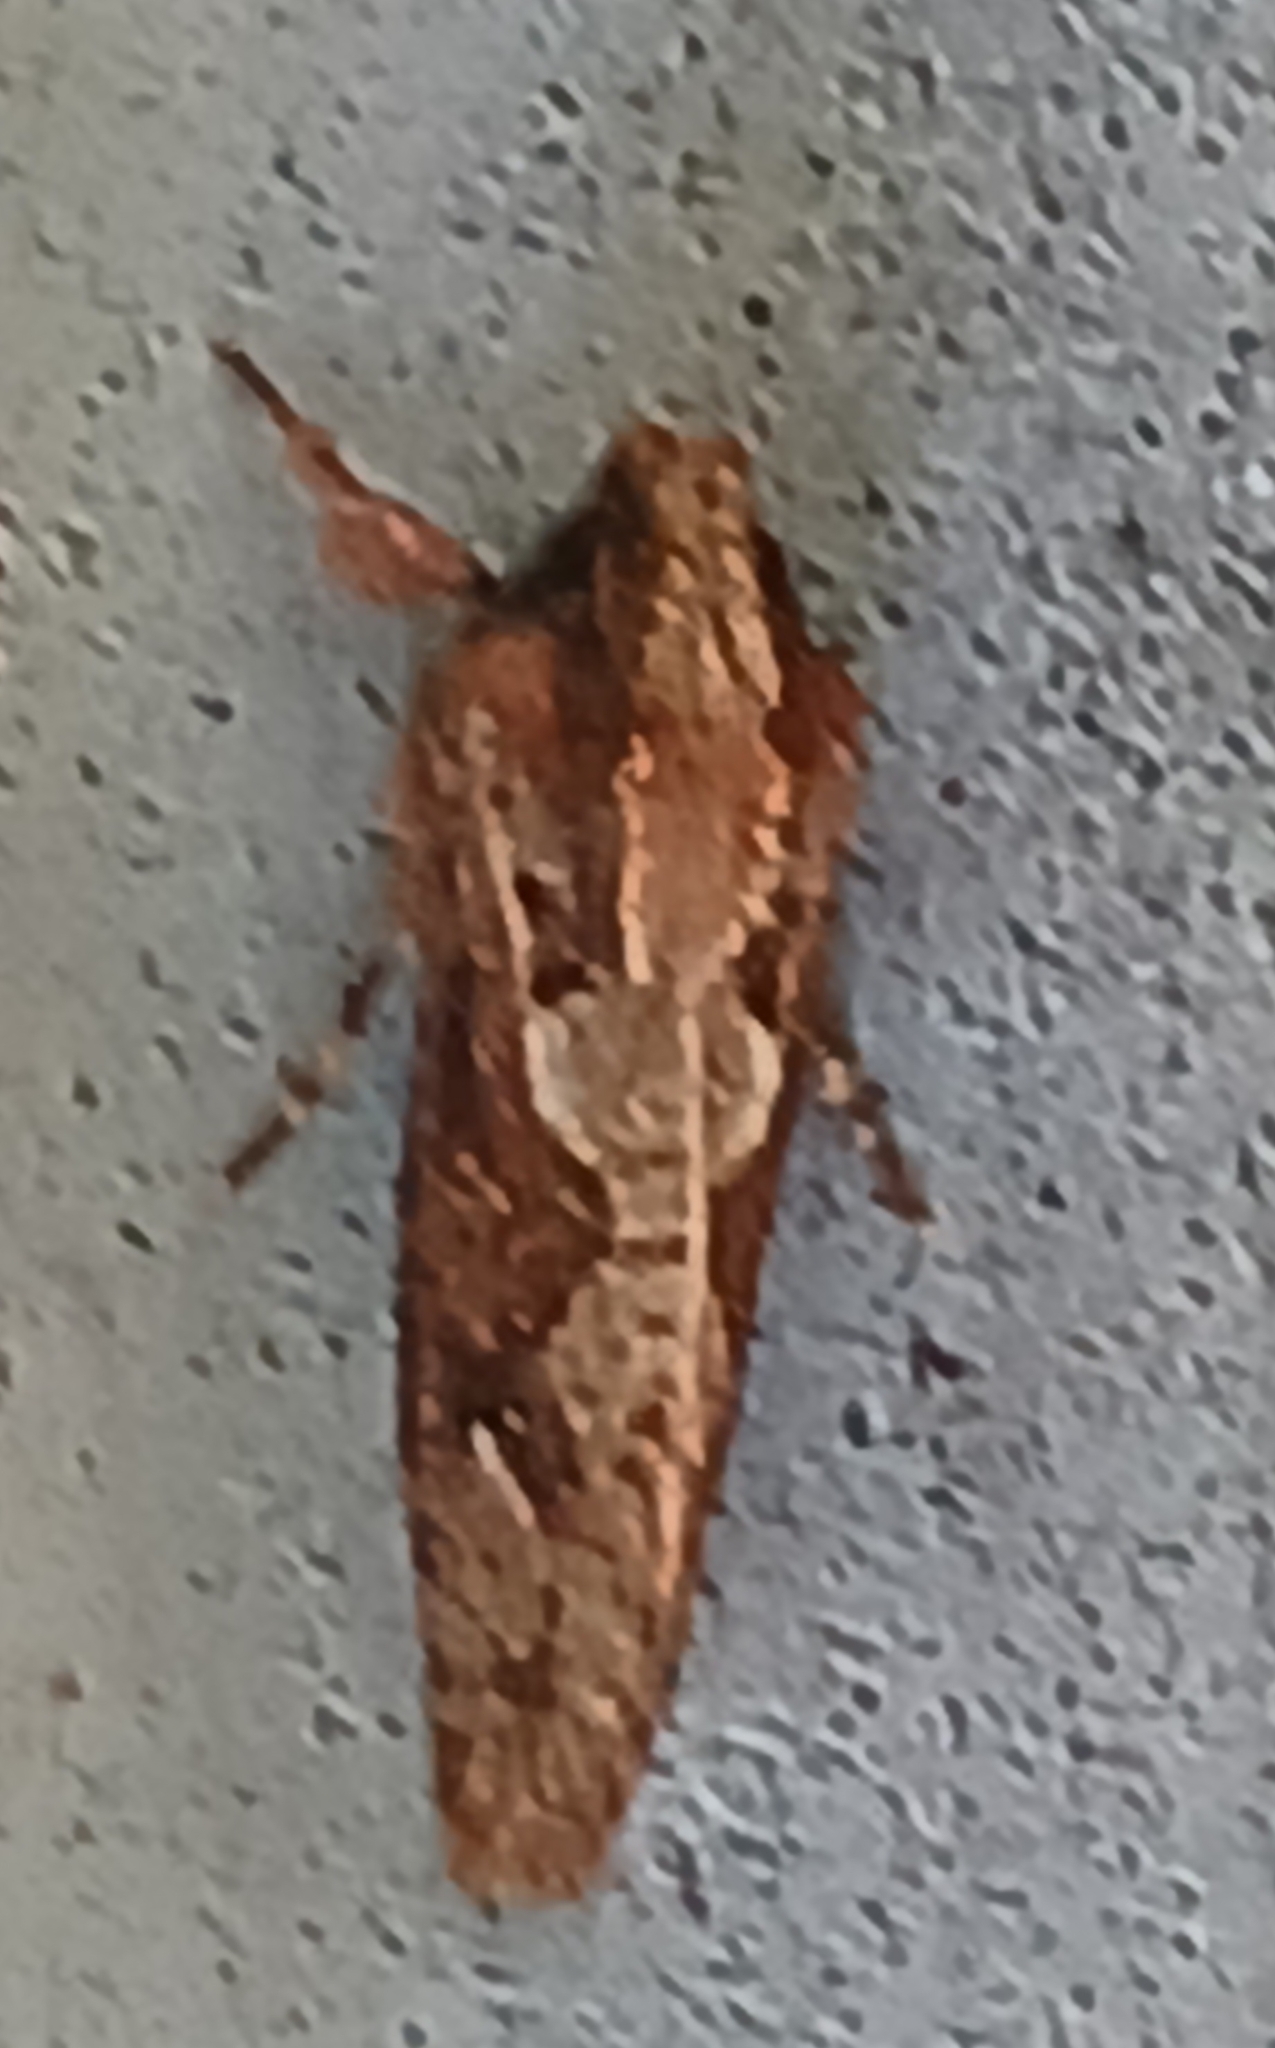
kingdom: Animalia
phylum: Arthropoda
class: Insecta
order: Lepidoptera
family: Tineidae
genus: Acrolophus
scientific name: Acrolophus walsinghami
